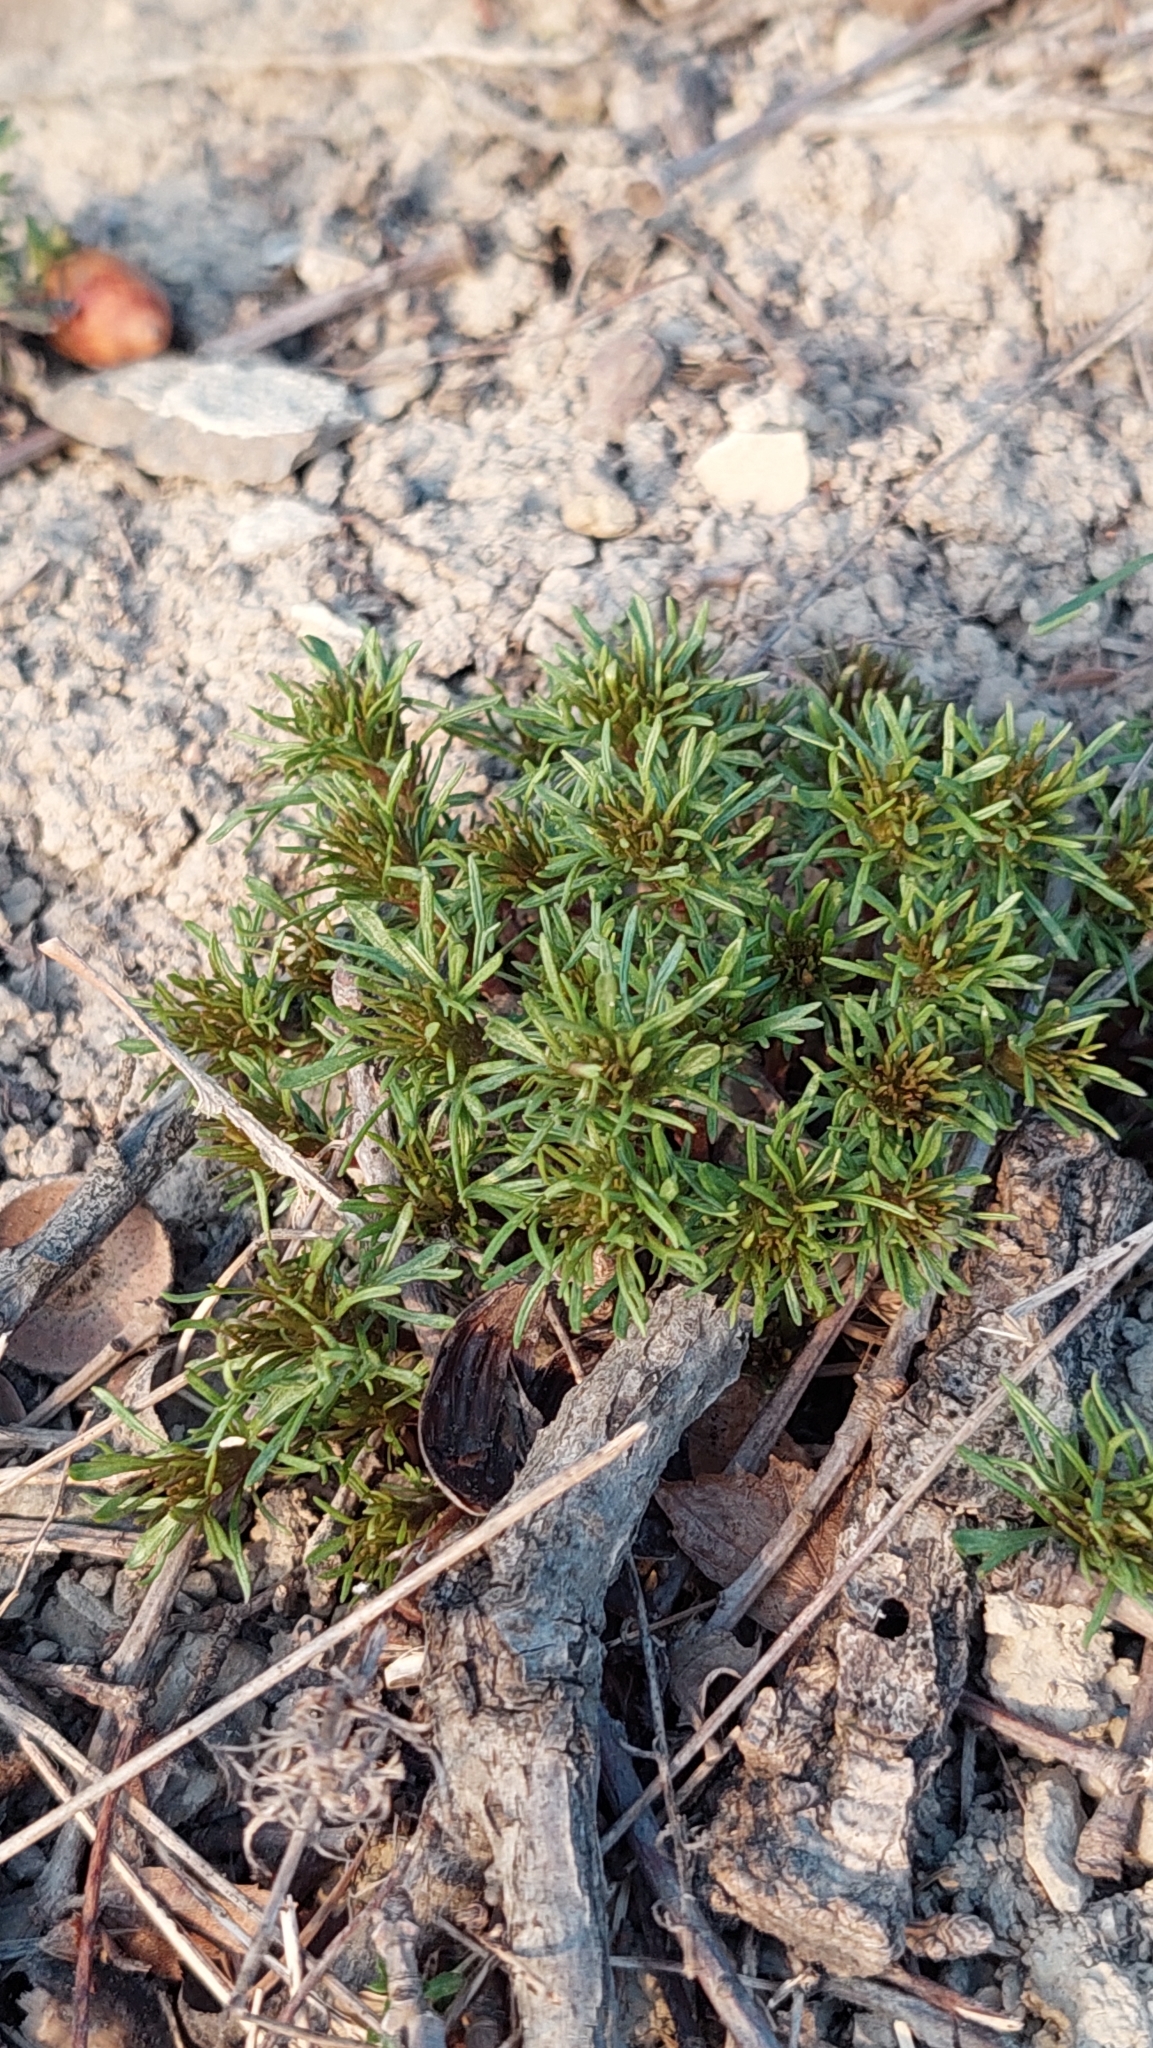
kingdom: Plantae
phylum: Tracheophyta
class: Magnoliopsida
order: Lamiales
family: Lamiaceae
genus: Ajuga
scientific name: Ajuga chamaepitys
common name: Ground-pine
